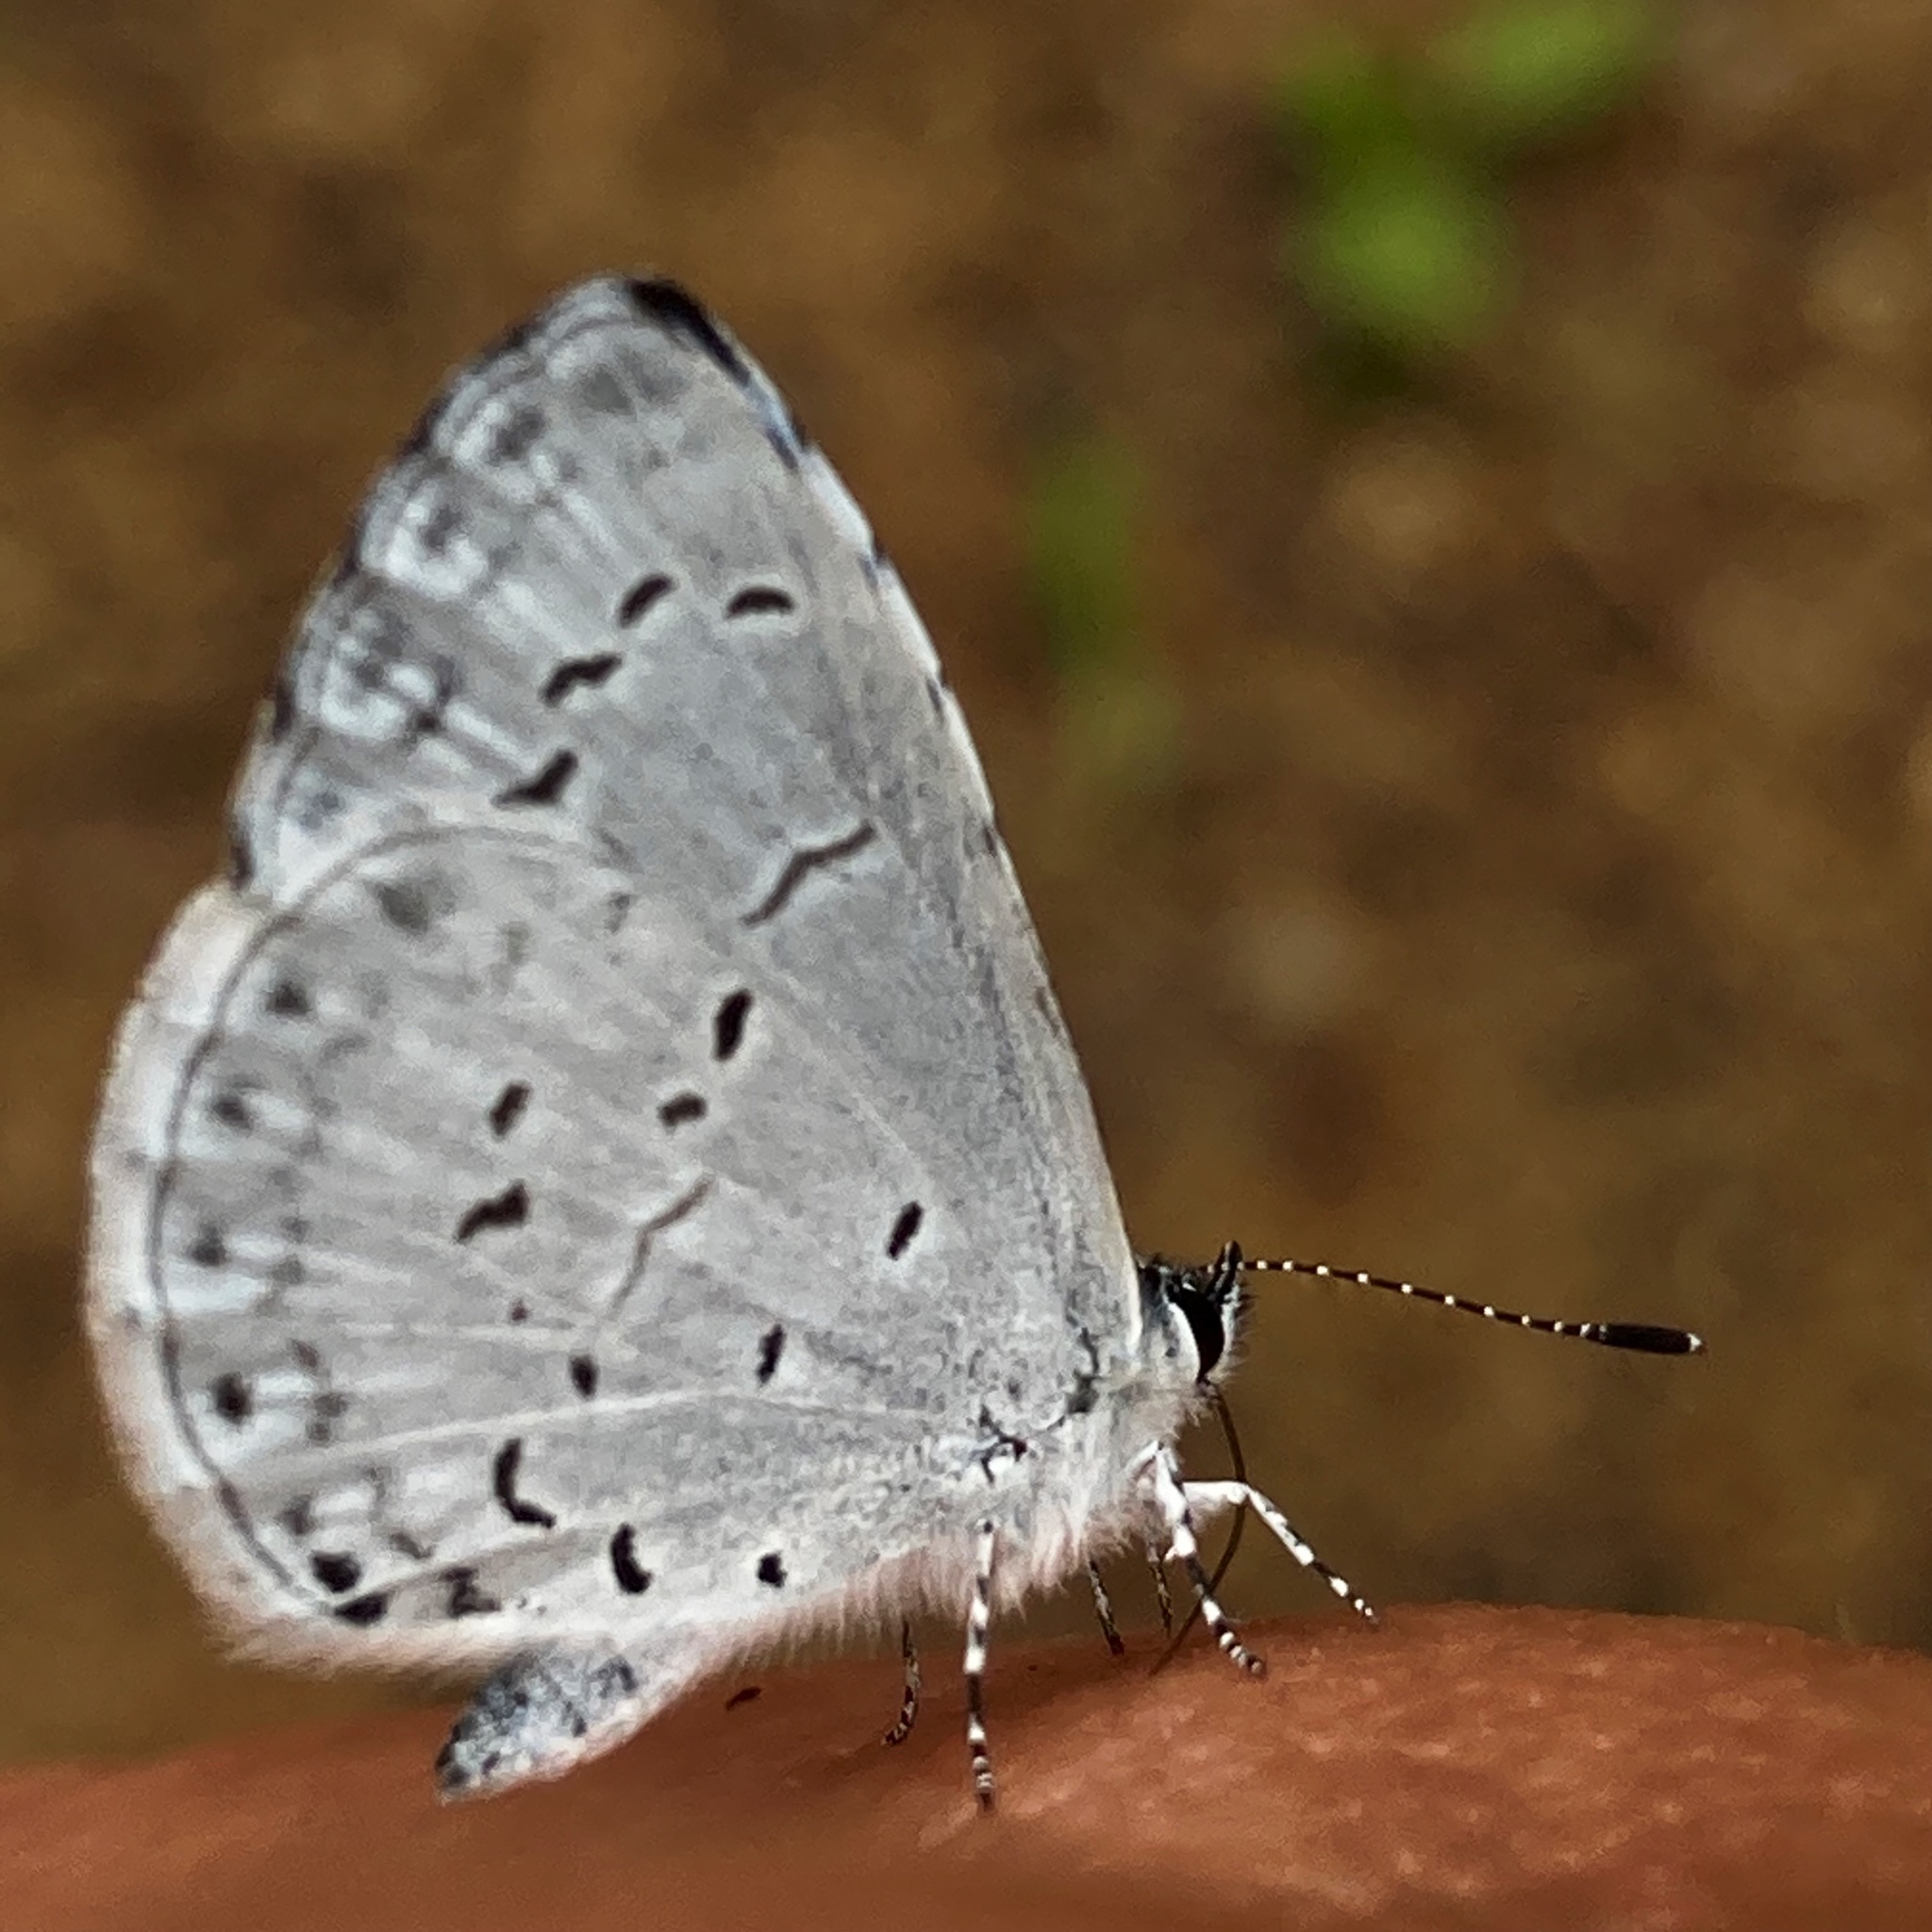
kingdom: Animalia
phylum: Arthropoda
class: Insecta
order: Lepidoptera
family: Lycaenidae
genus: Cyaniris
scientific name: Cyaniris neglecta
